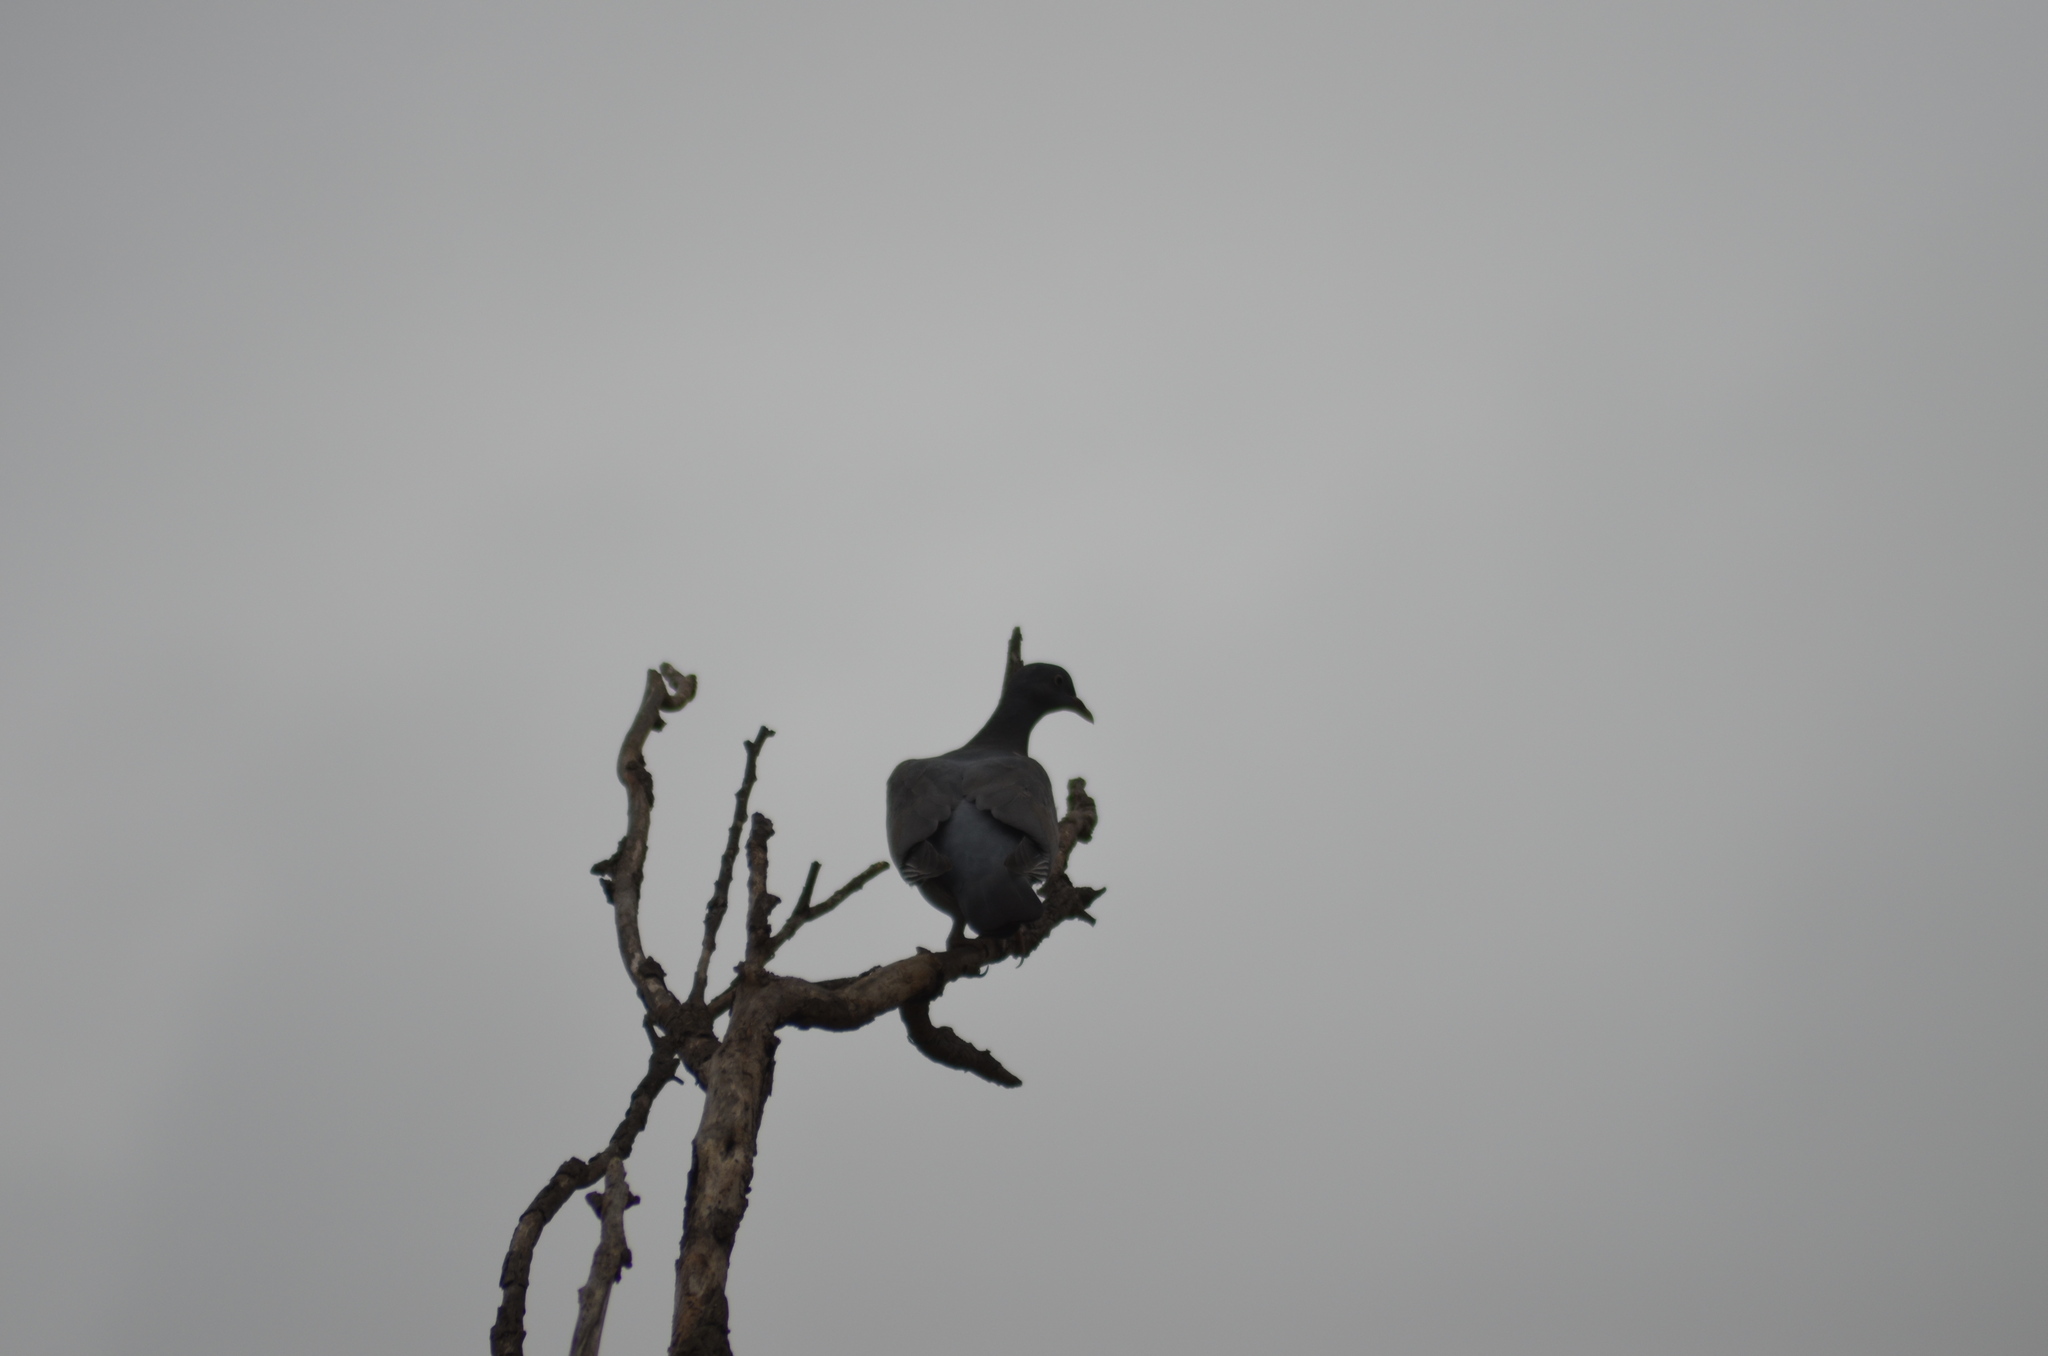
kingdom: Animalia
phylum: Chordata
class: Aves
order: Columbiformes
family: Columbidae
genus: Columba
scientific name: Columba palumbus
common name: Common wood pigeon
